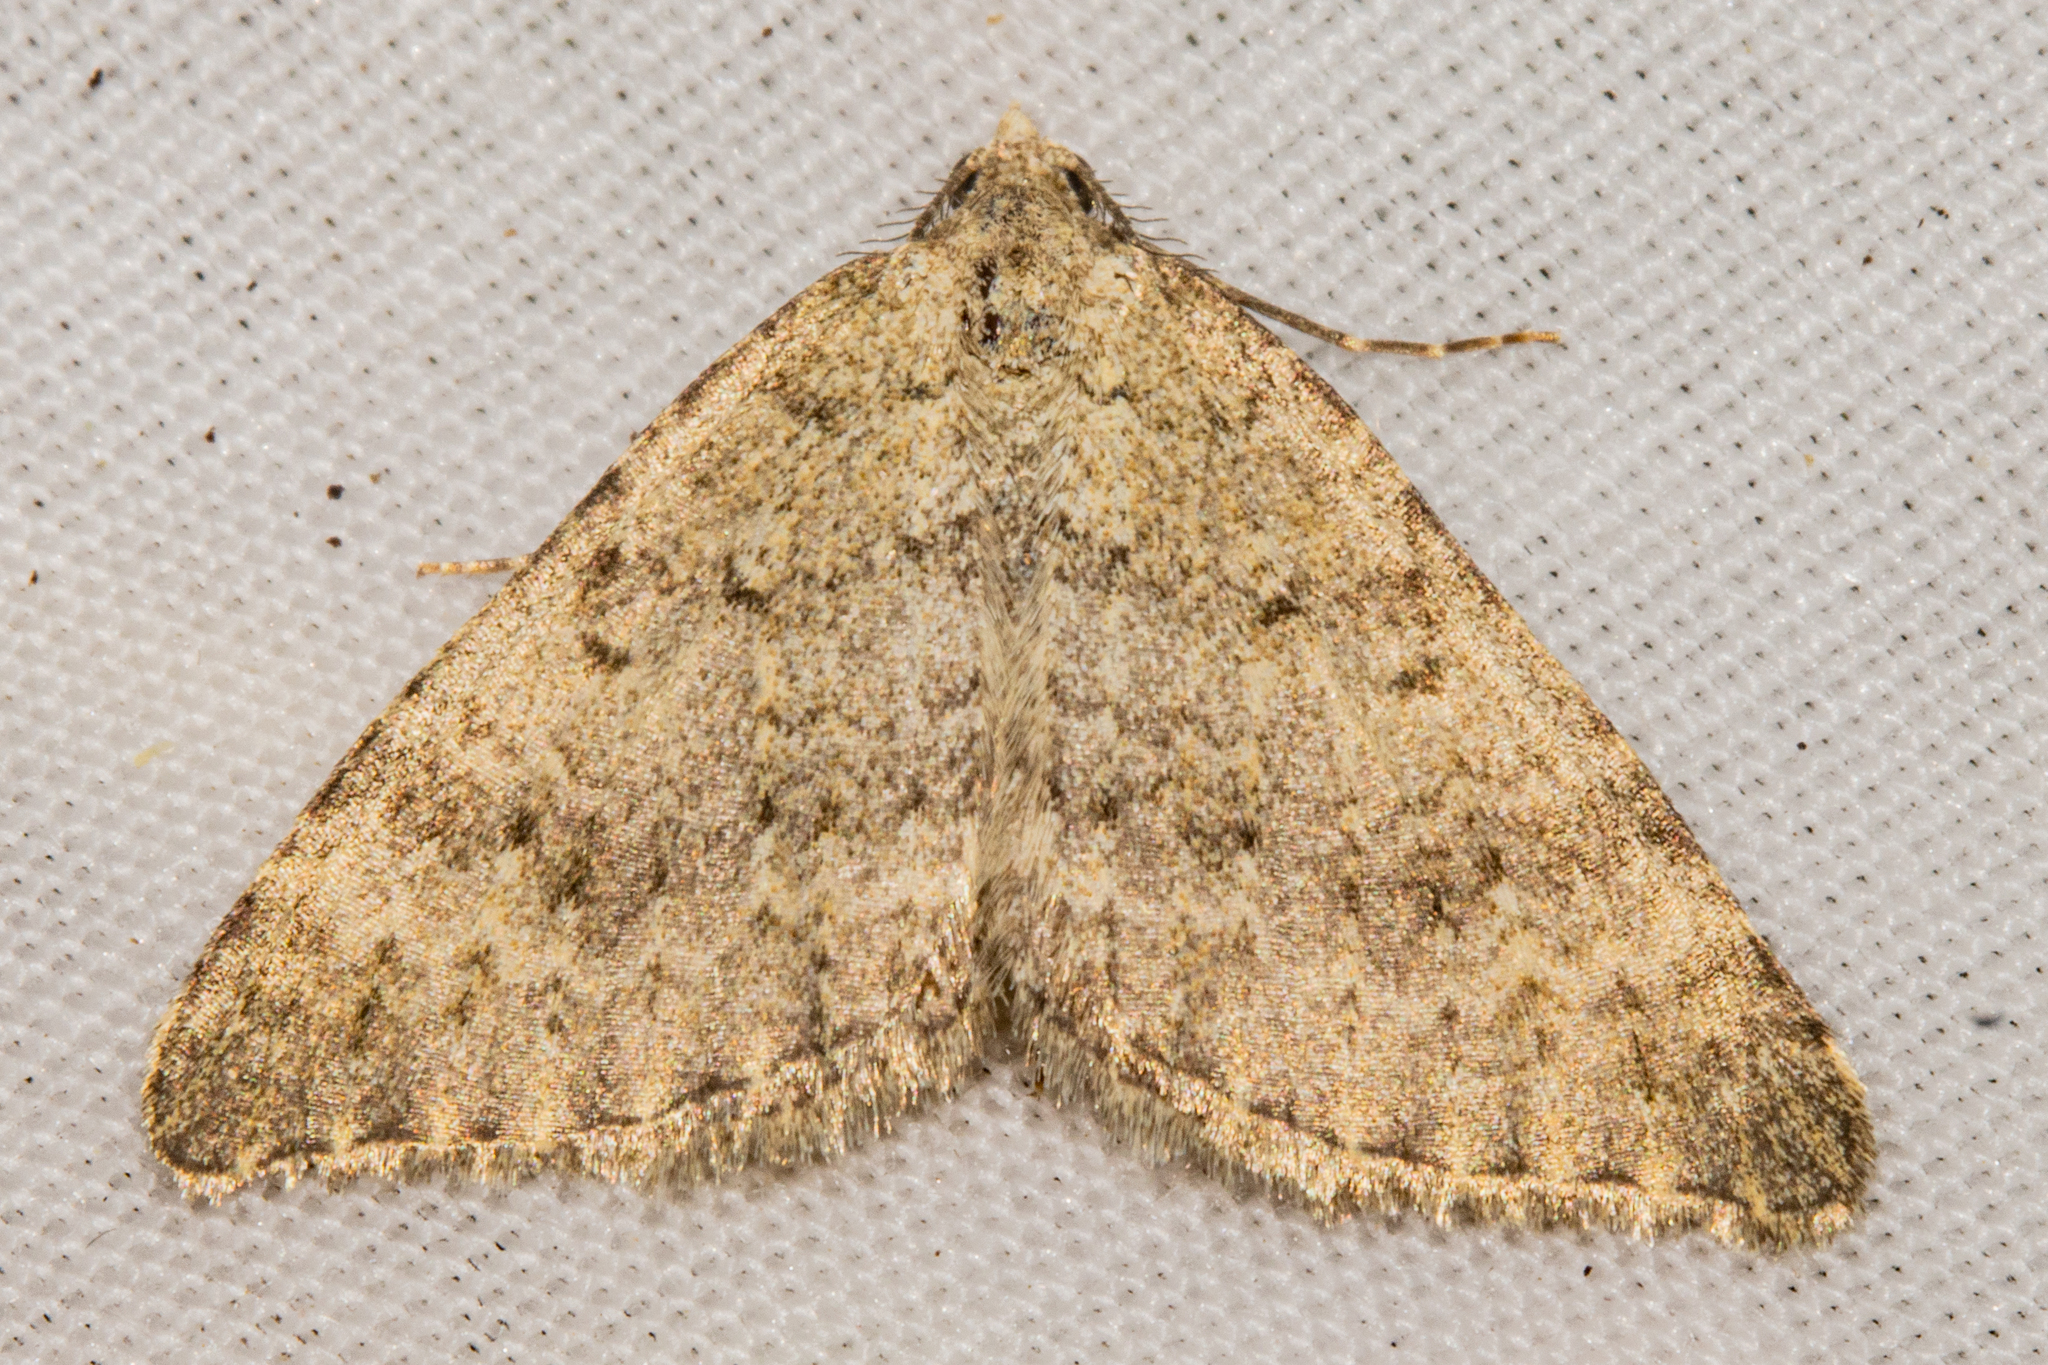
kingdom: Animalia
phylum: Arthropoda
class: Insecta
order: Lepidoptera
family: Geometridae
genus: Helastia
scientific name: Helastia scissa
